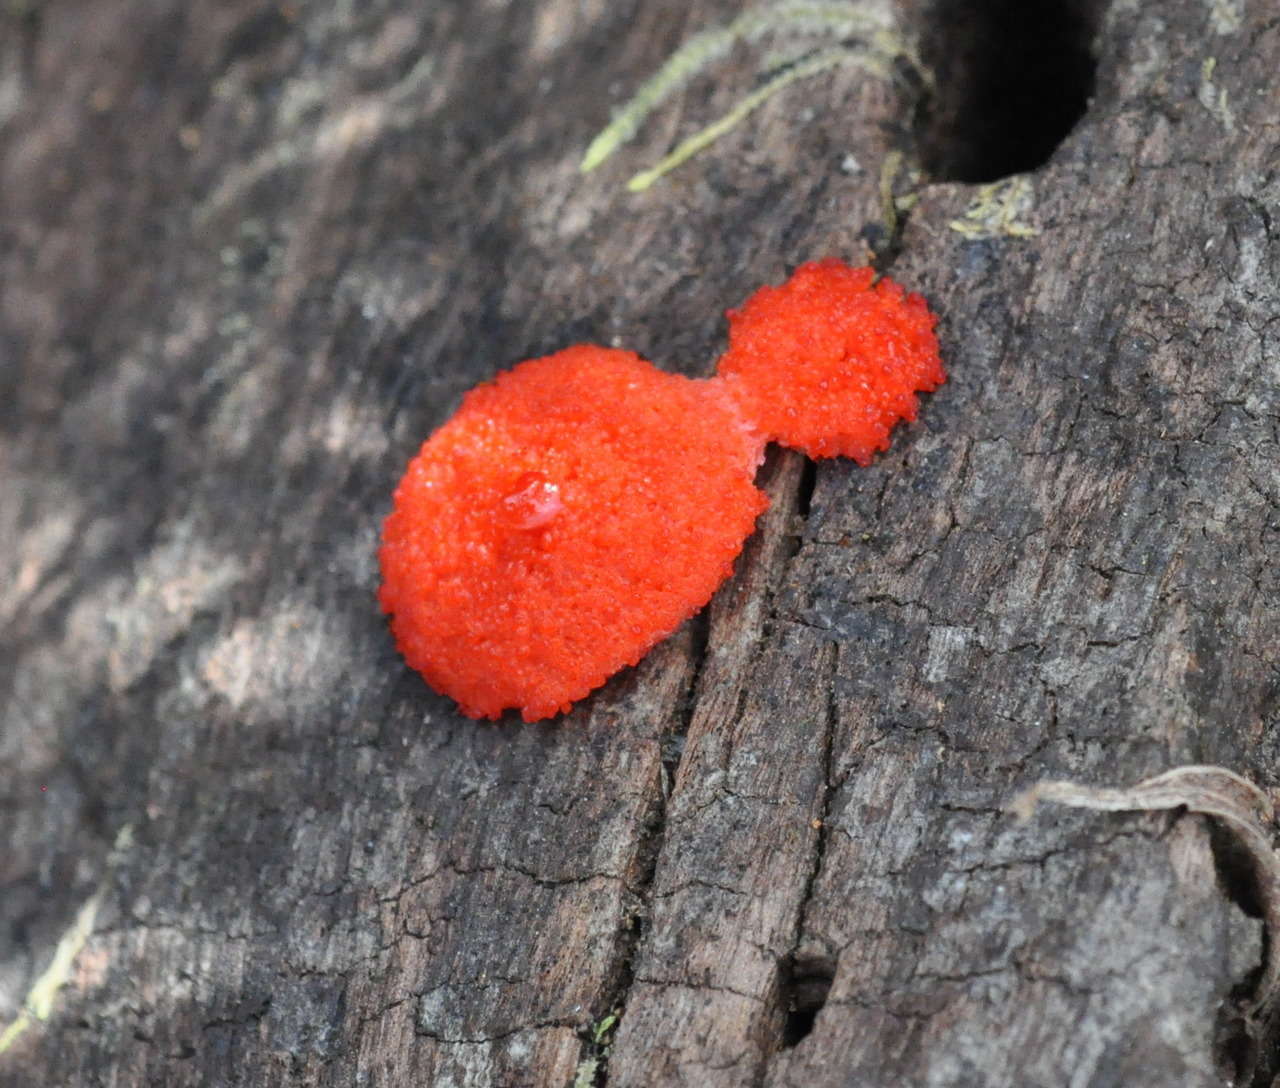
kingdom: Protozoa
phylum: Mycetozoa
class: Myxomycetes
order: Cribrariales
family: Tubiferaceae
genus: Tubifera
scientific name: Tubifera ferruginosa
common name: Red raspberry slime mold
